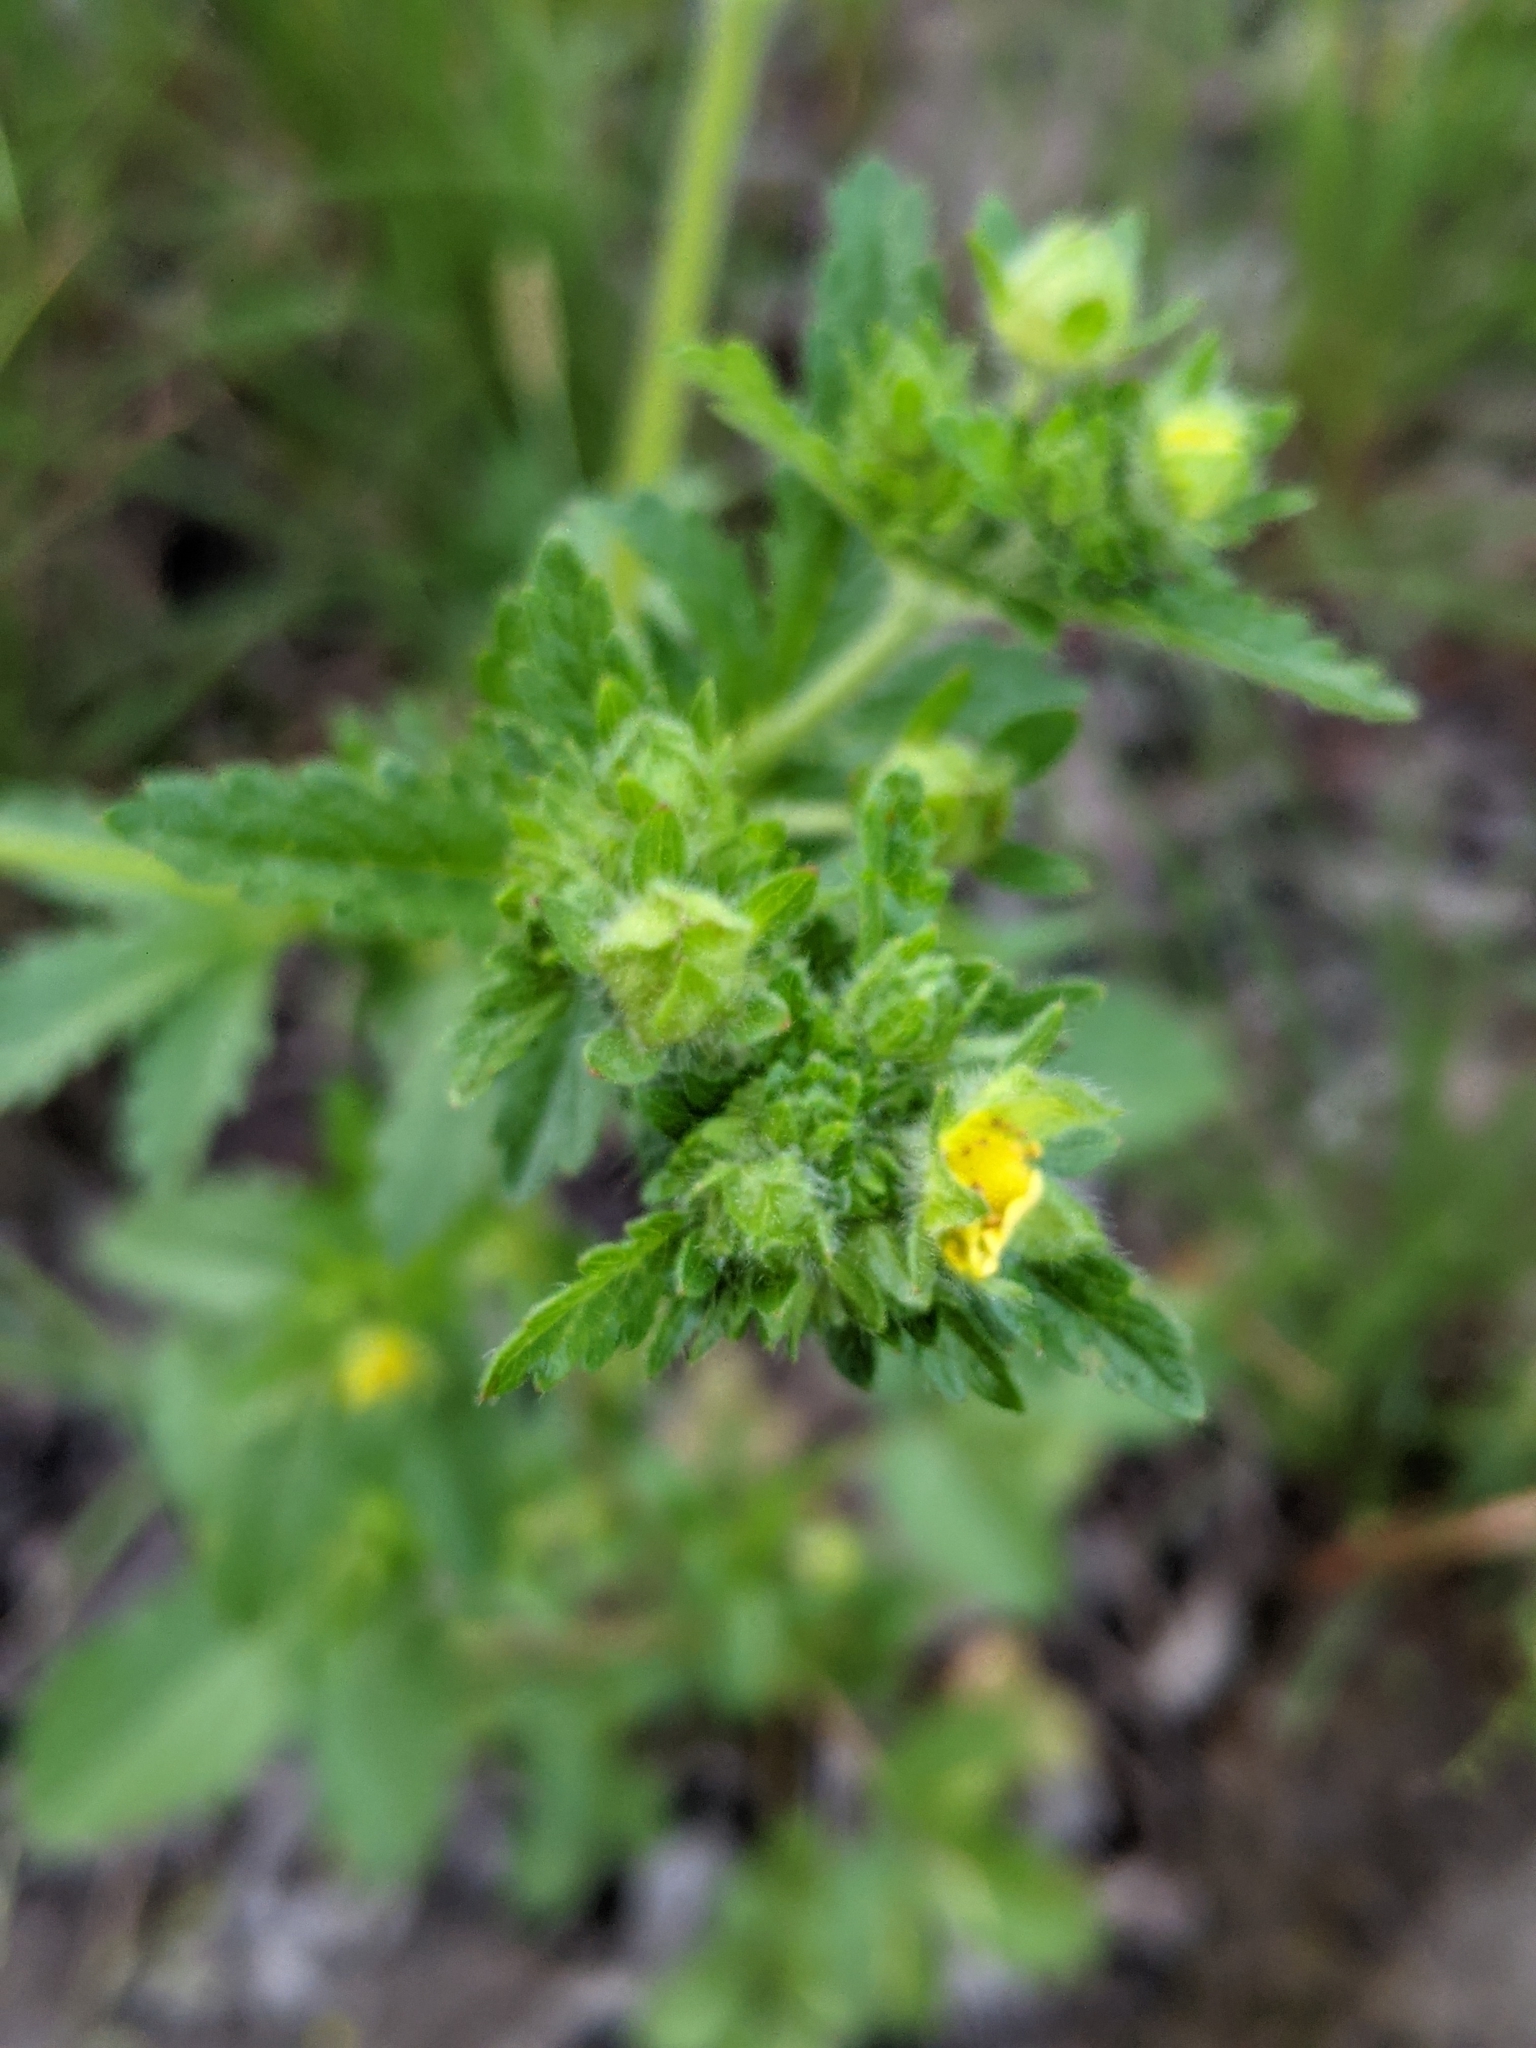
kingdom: Plantae
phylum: Tracheophyta
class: Magnoliopsida
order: Rosales
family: Rosaceae
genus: Potentilla
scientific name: Potentilla norvegica
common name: Ternate-leaved cinquefoil
